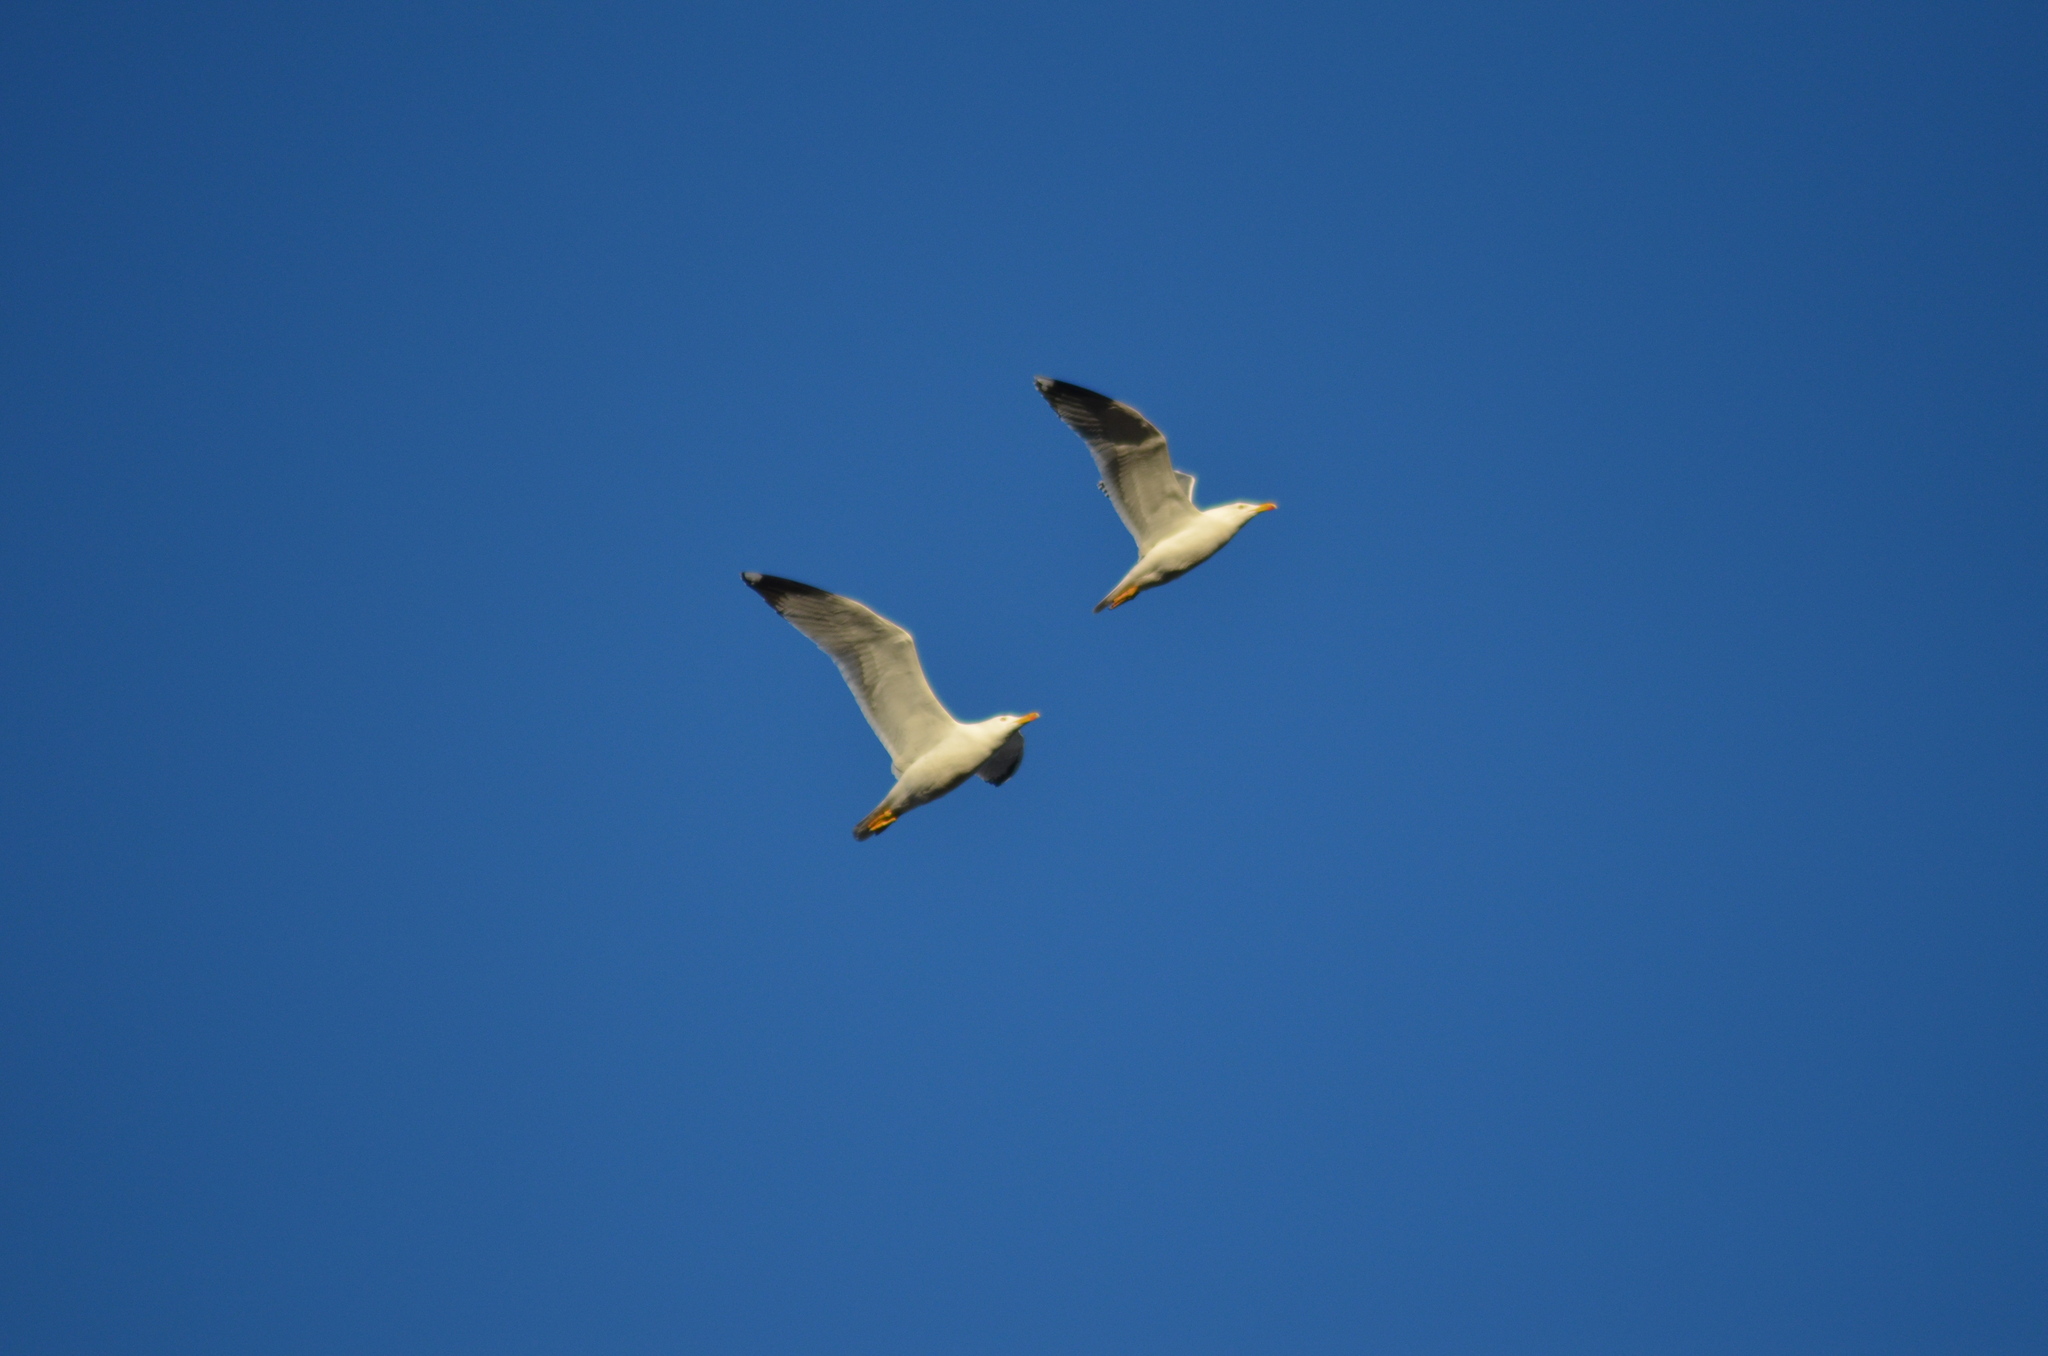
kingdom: Animalia
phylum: Chordata
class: Aves
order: Charadriiformes
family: Laridae
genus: Larus
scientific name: Larus michahellis
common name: Yellow-legged gull
